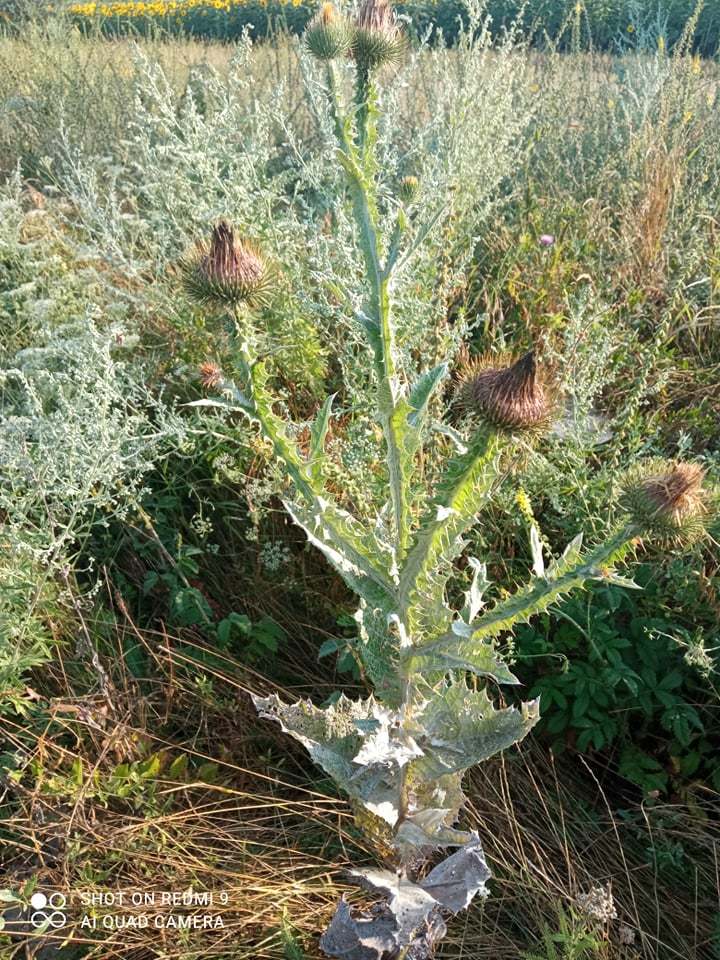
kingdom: Plantae
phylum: Tracheophyta
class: Magnoliopsida
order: Asterales
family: Asteraceae
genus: Onopordum
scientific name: Onopordum acanthium
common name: Scotch thistle
